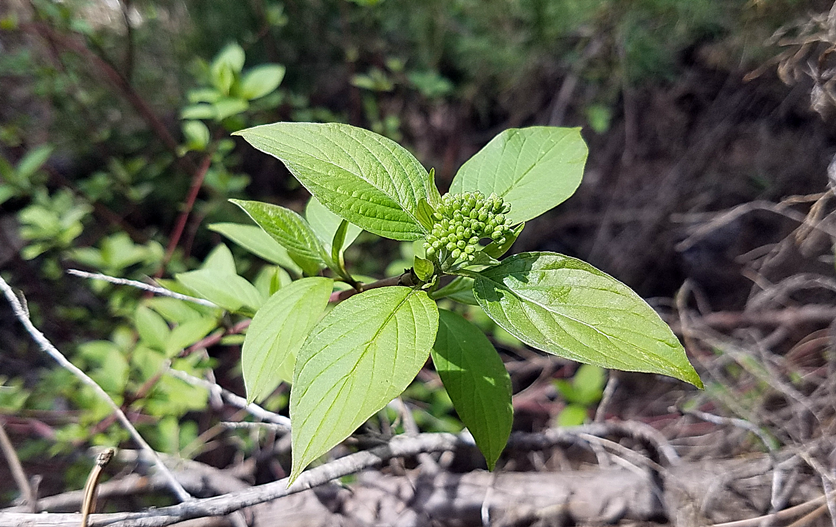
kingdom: Plantae
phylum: Tracheophyta
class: Magnoliopsida
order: Cornales
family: Cornaceae
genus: Cornus
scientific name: Cornus sericea
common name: Red-osier dogwood
